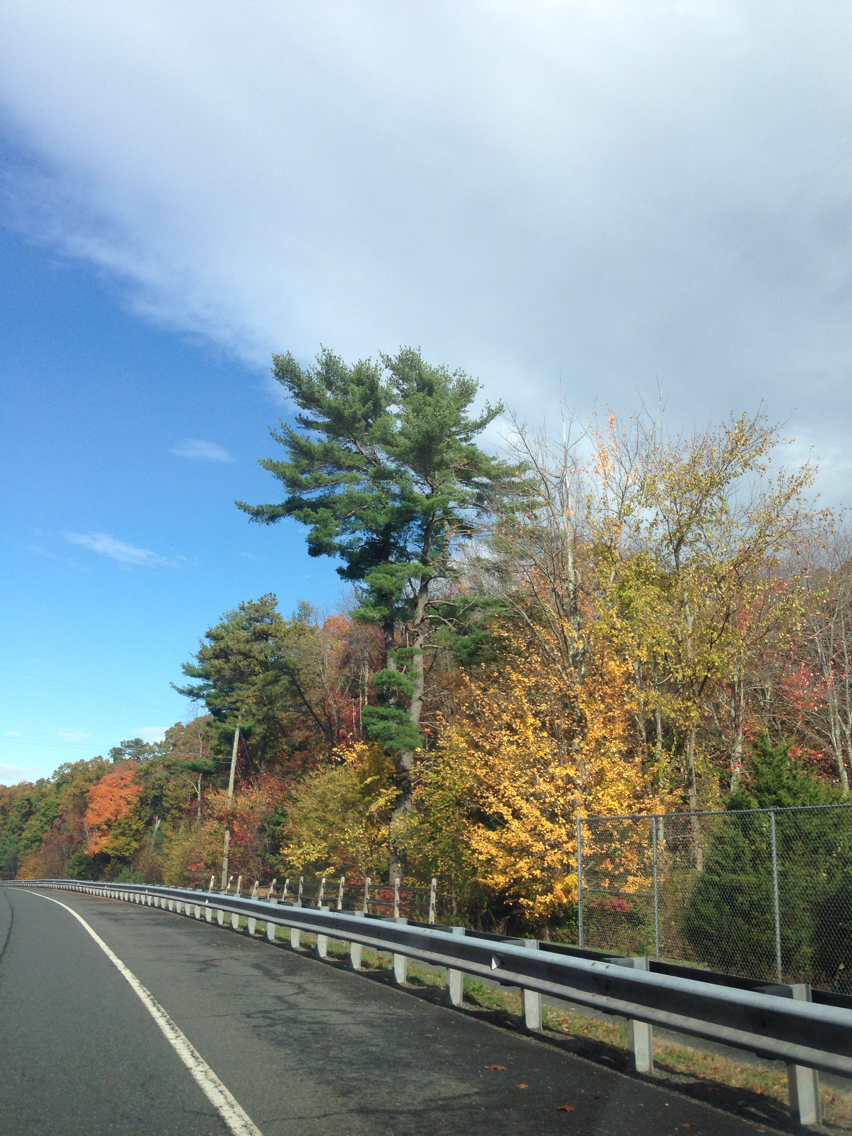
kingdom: Plantae
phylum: Tracheophyta
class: Pinopsida
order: Pinales
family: Pinaceae
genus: Pinus
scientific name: Pinus strobus
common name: Weymouth pine
